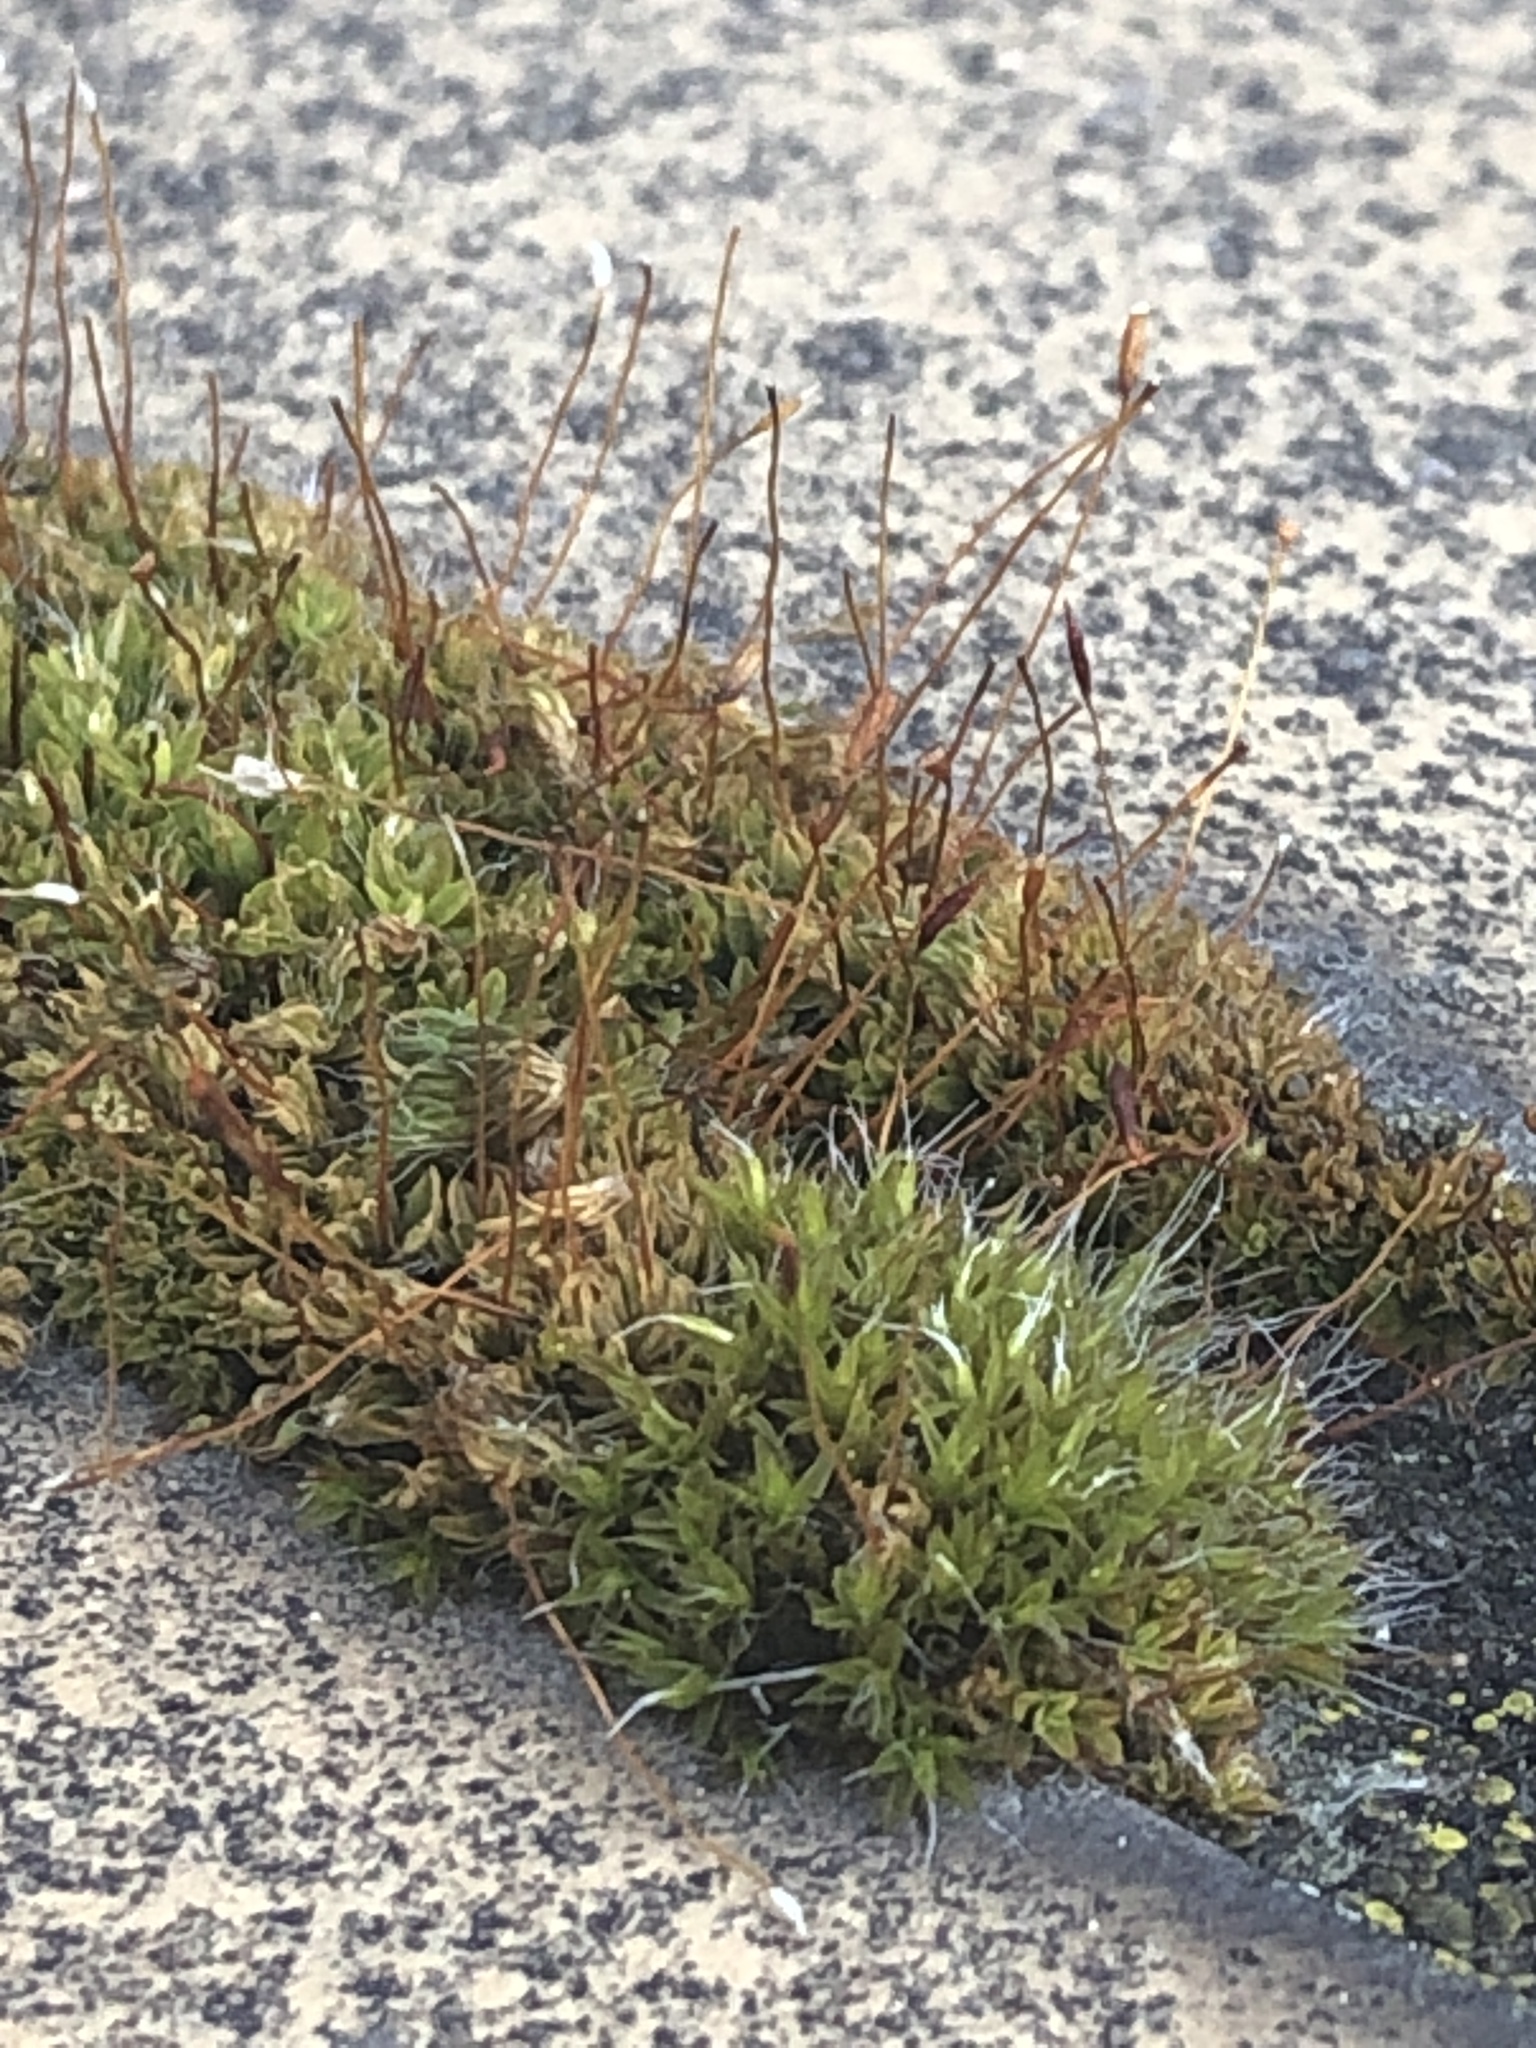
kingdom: Plantae
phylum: Bryophyta
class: Bryopsida
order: Pottiales
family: Pottiaceae
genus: Tortula
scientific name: Tortula muralis
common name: Wall screw-moss
